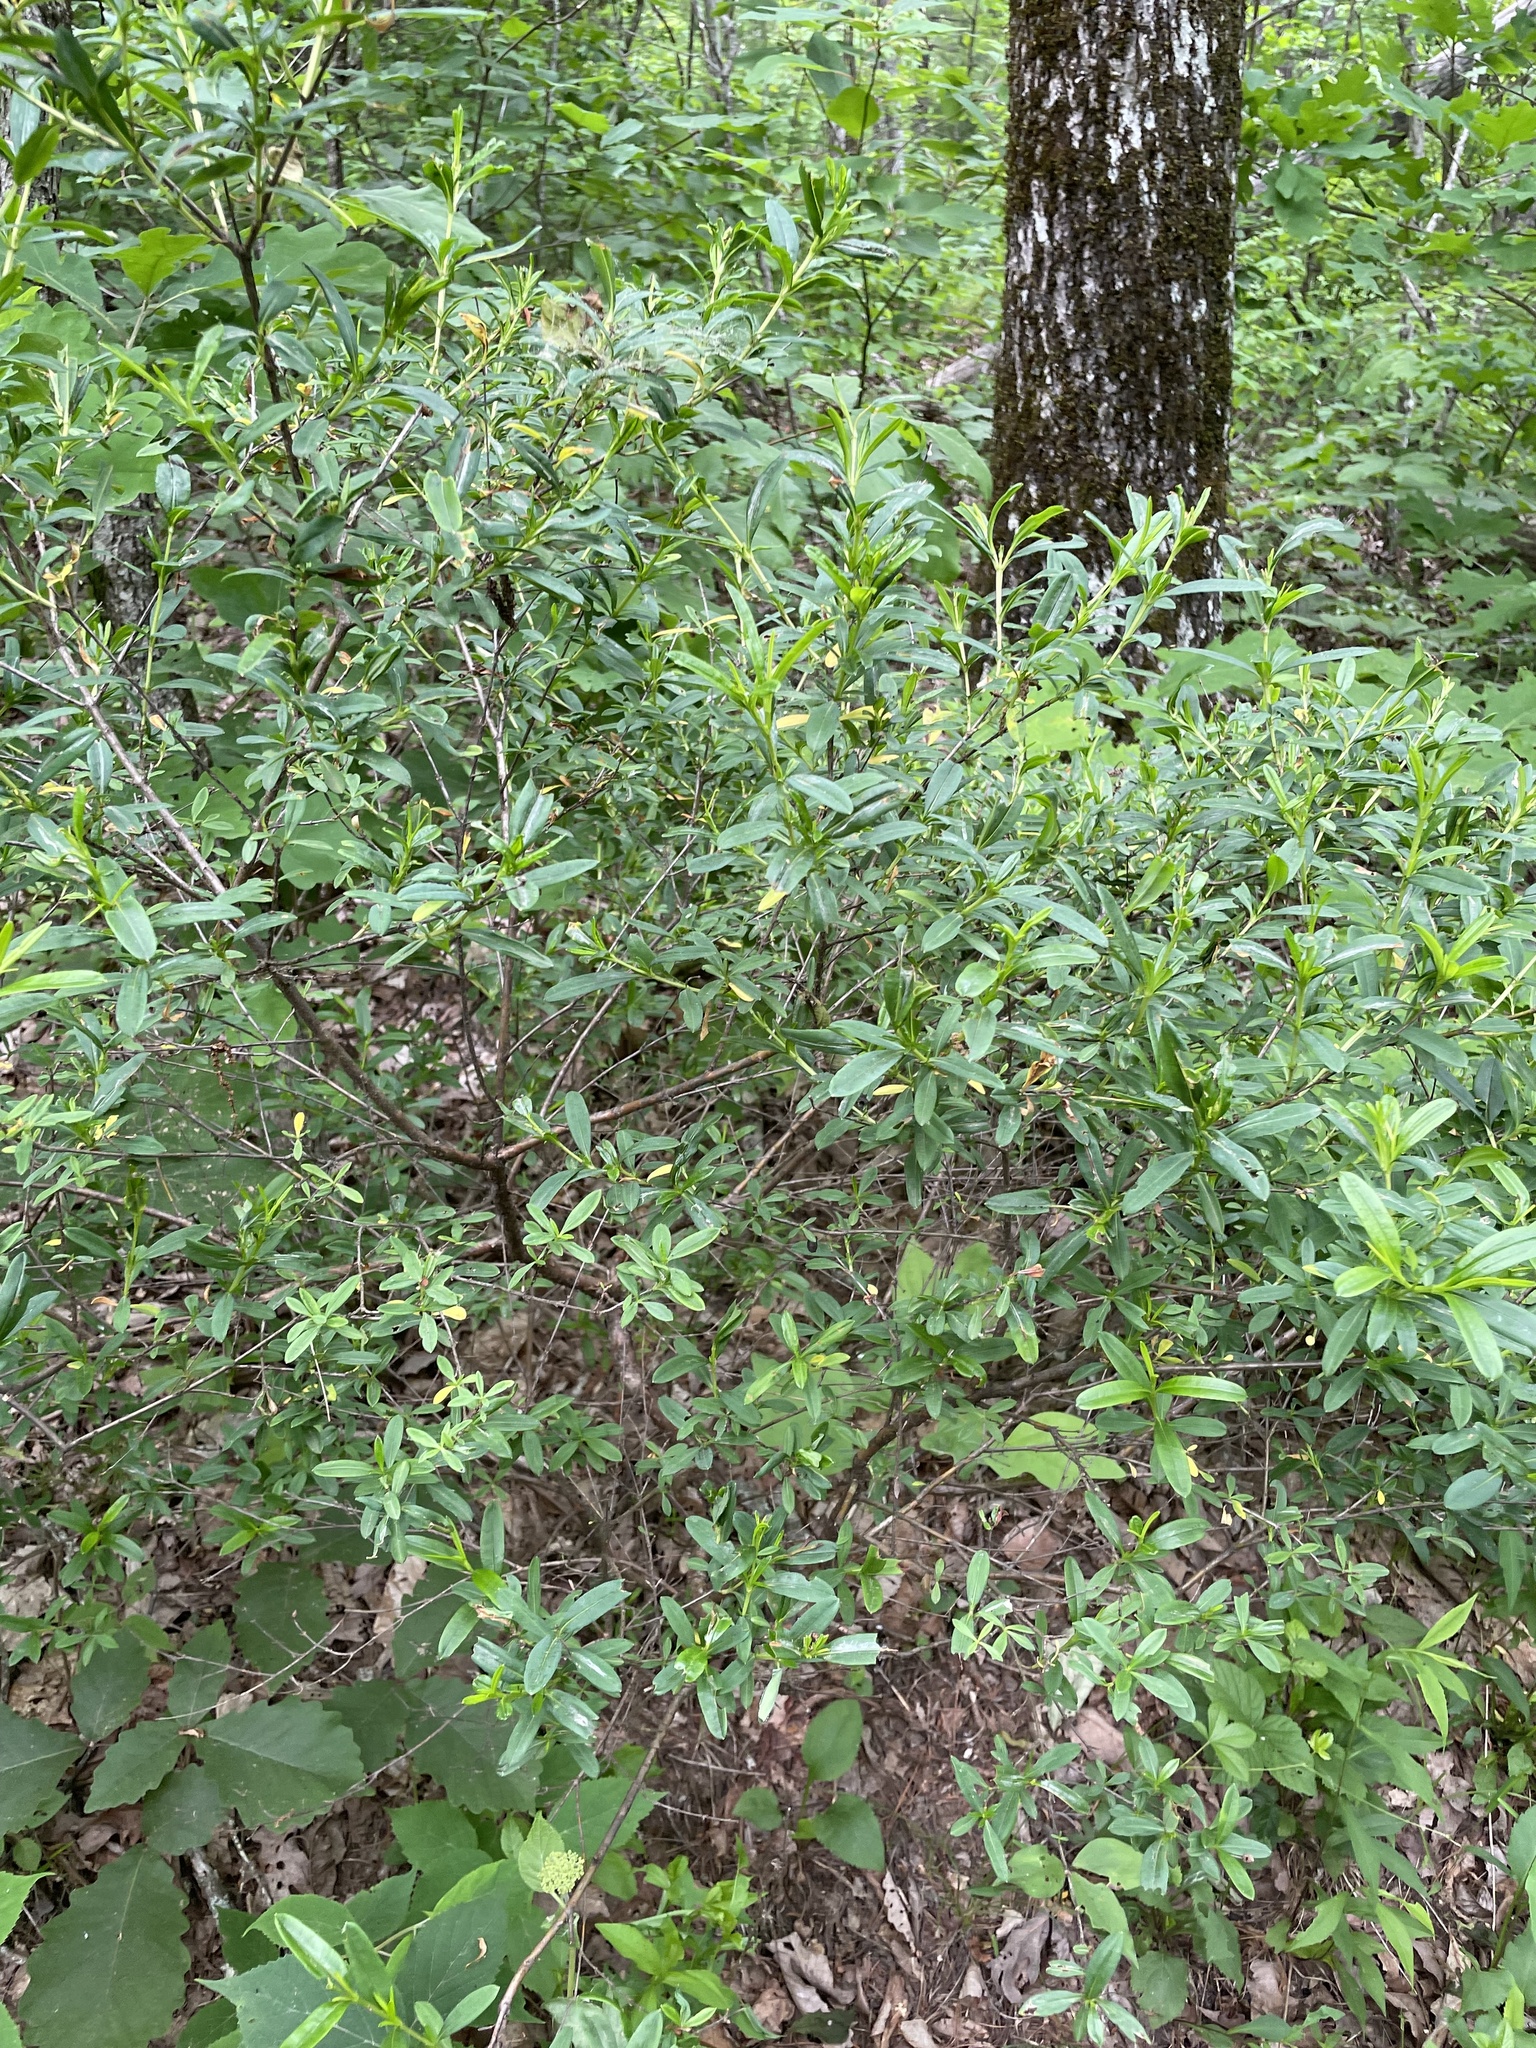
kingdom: Plantae
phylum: Tracheophyta
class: Magnoliopsida
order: Malpighiales
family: Hypericaceae
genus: Hypericum
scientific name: Hypericum prolificum
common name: Shrubby st. john's-wort
